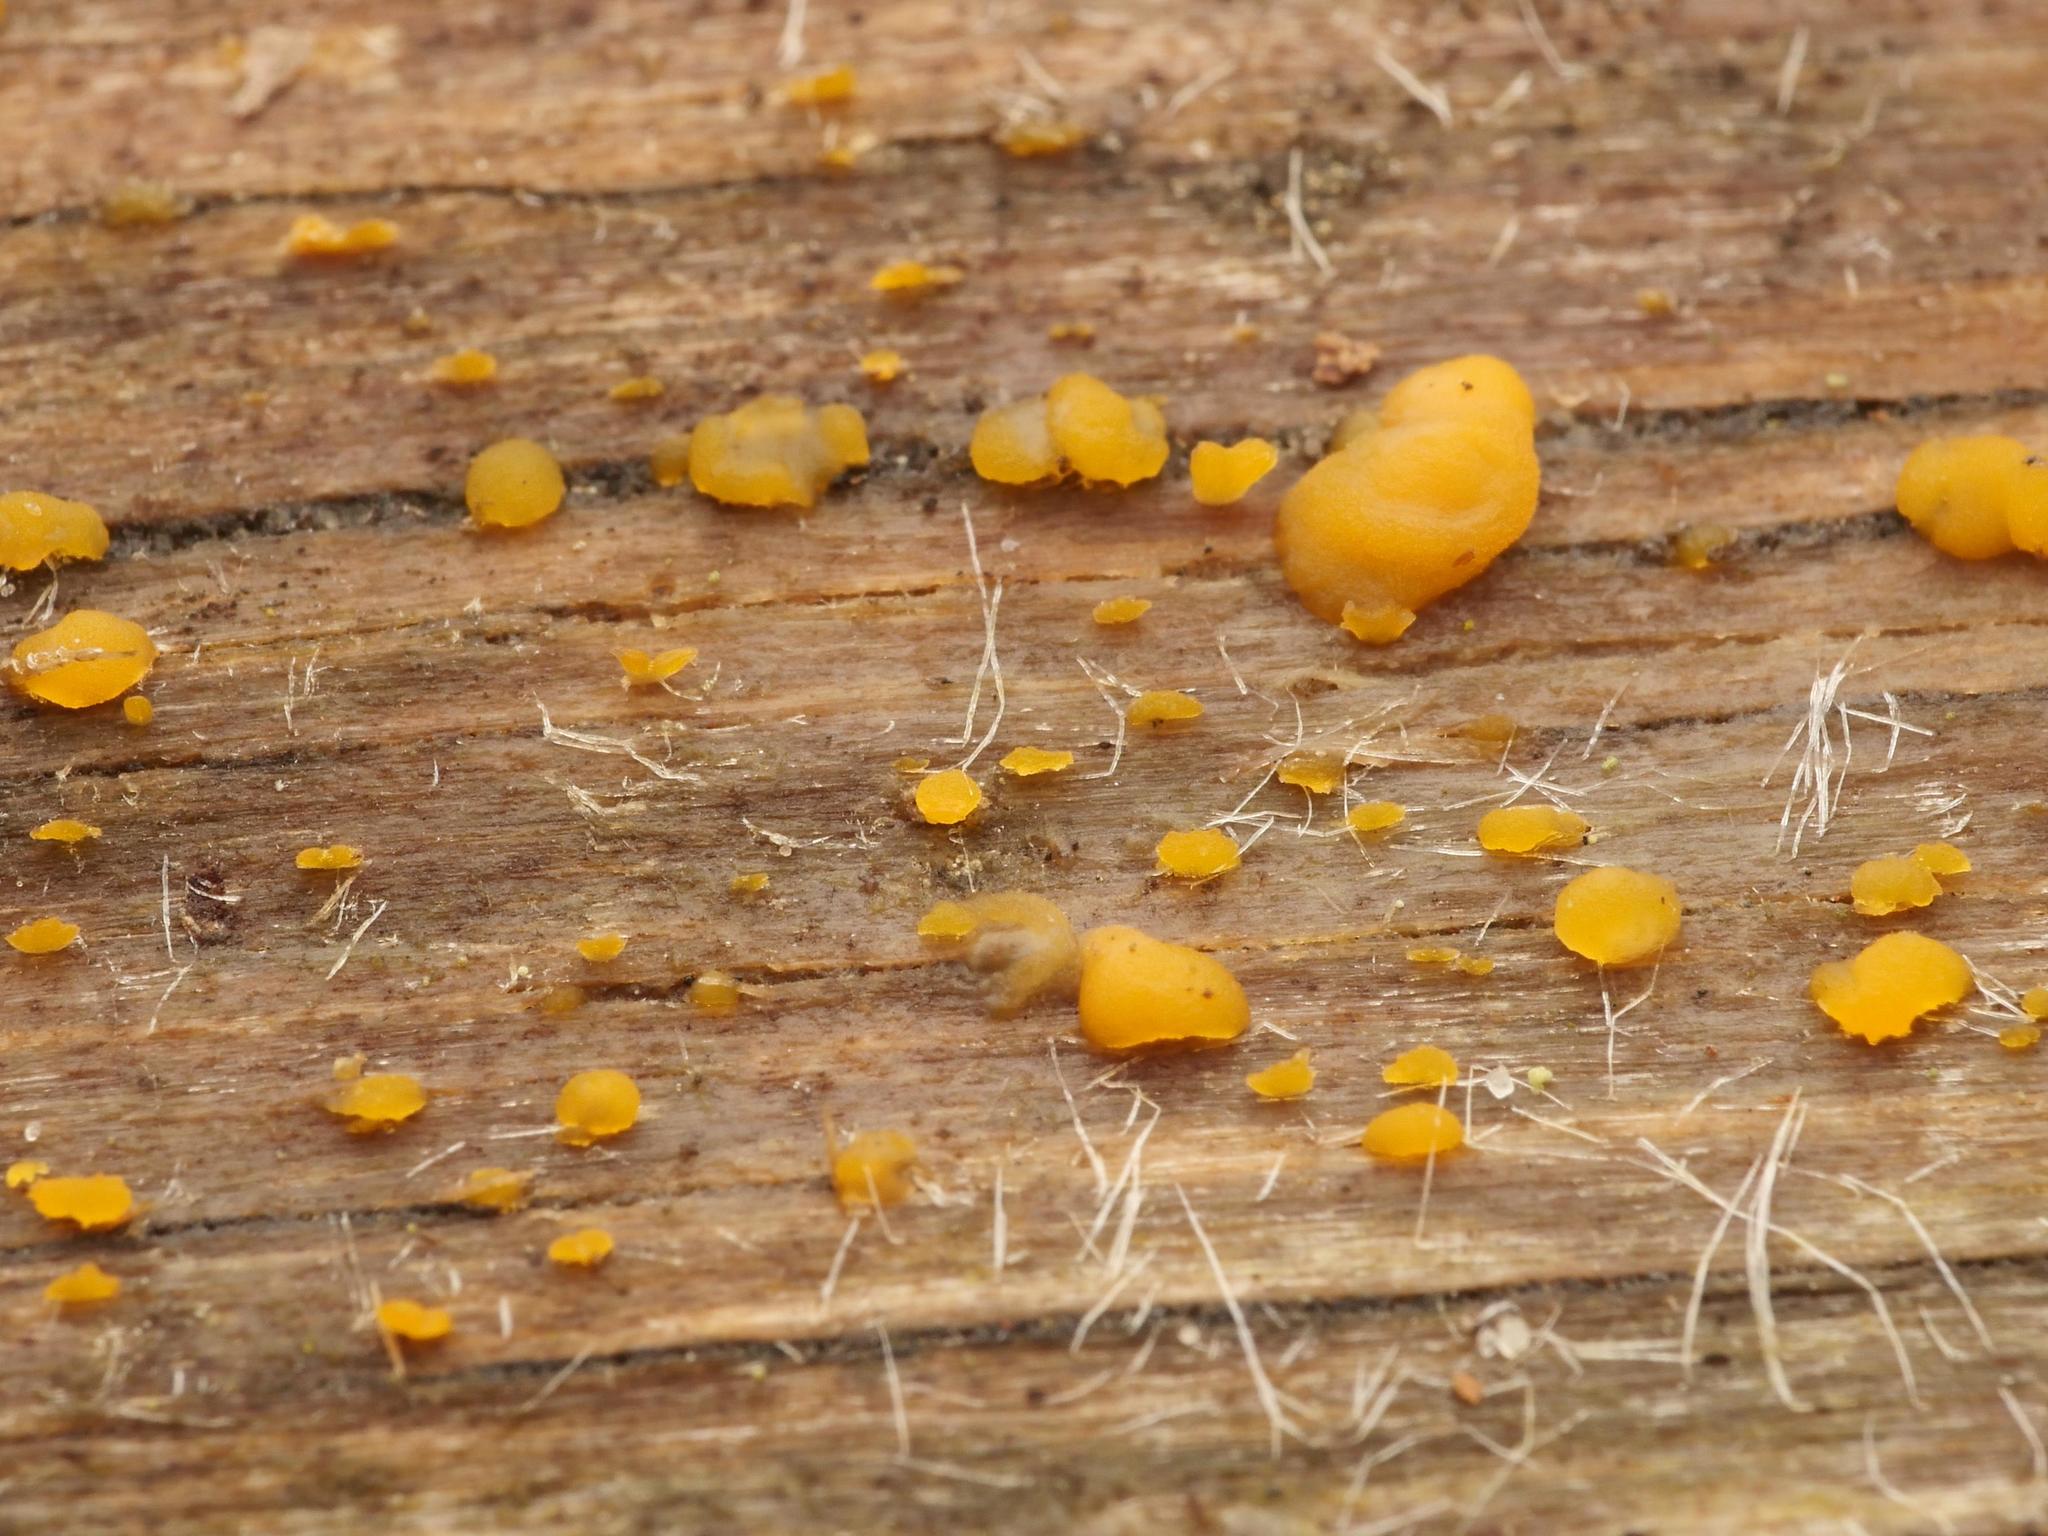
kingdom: Fungi
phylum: Basidiomycota
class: Dacrymycetes
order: Dacrymycetales
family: Dacrymycetaceae
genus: Dacrymyces
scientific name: Dacrymyces stillatus
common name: Common jelly spot
